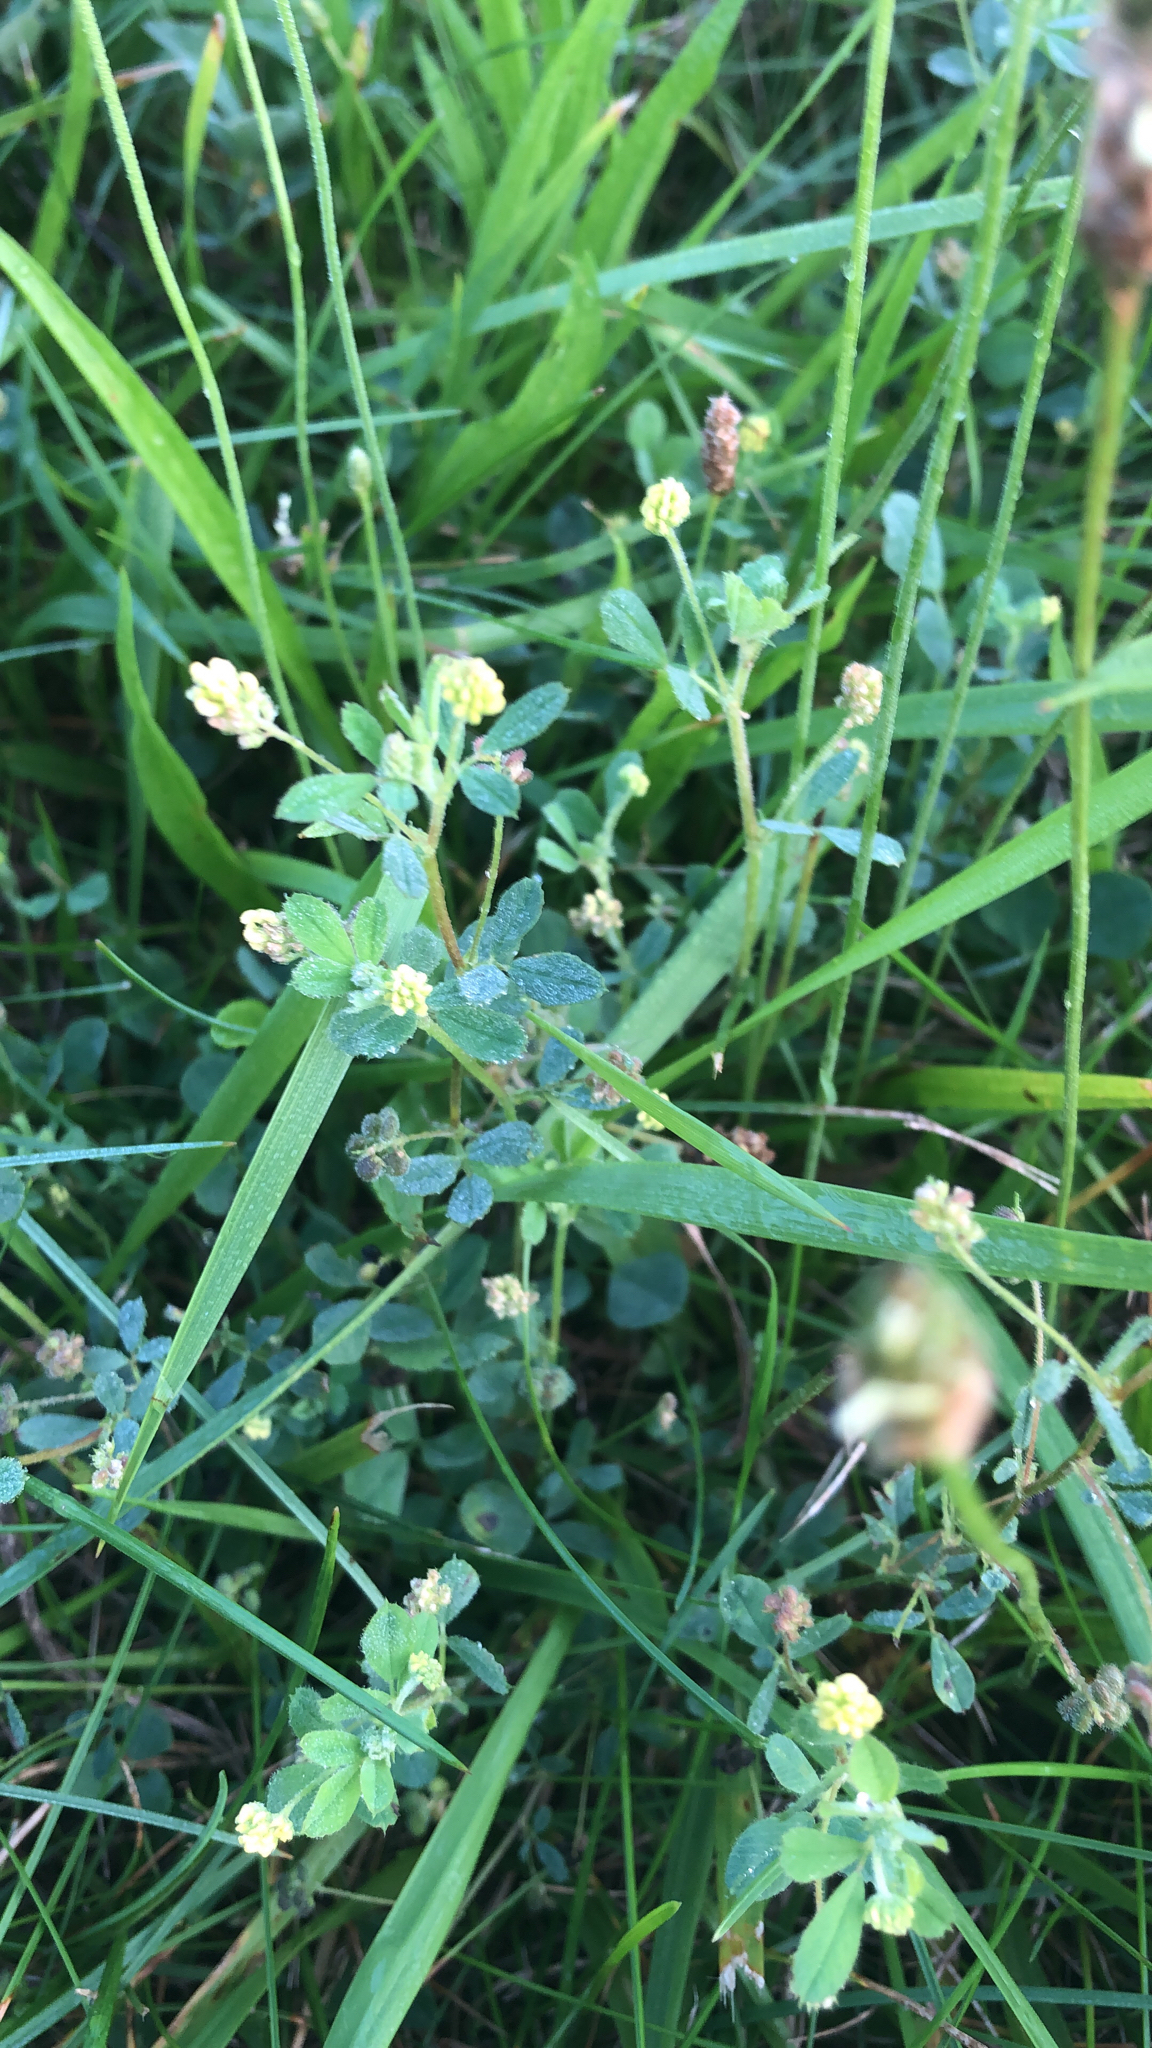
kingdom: Plantae
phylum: Tracheophyta
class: Magnoliopsida
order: Fabales
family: Fabaceae
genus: Medicago
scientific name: Medicago lupulina
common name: Black medick
